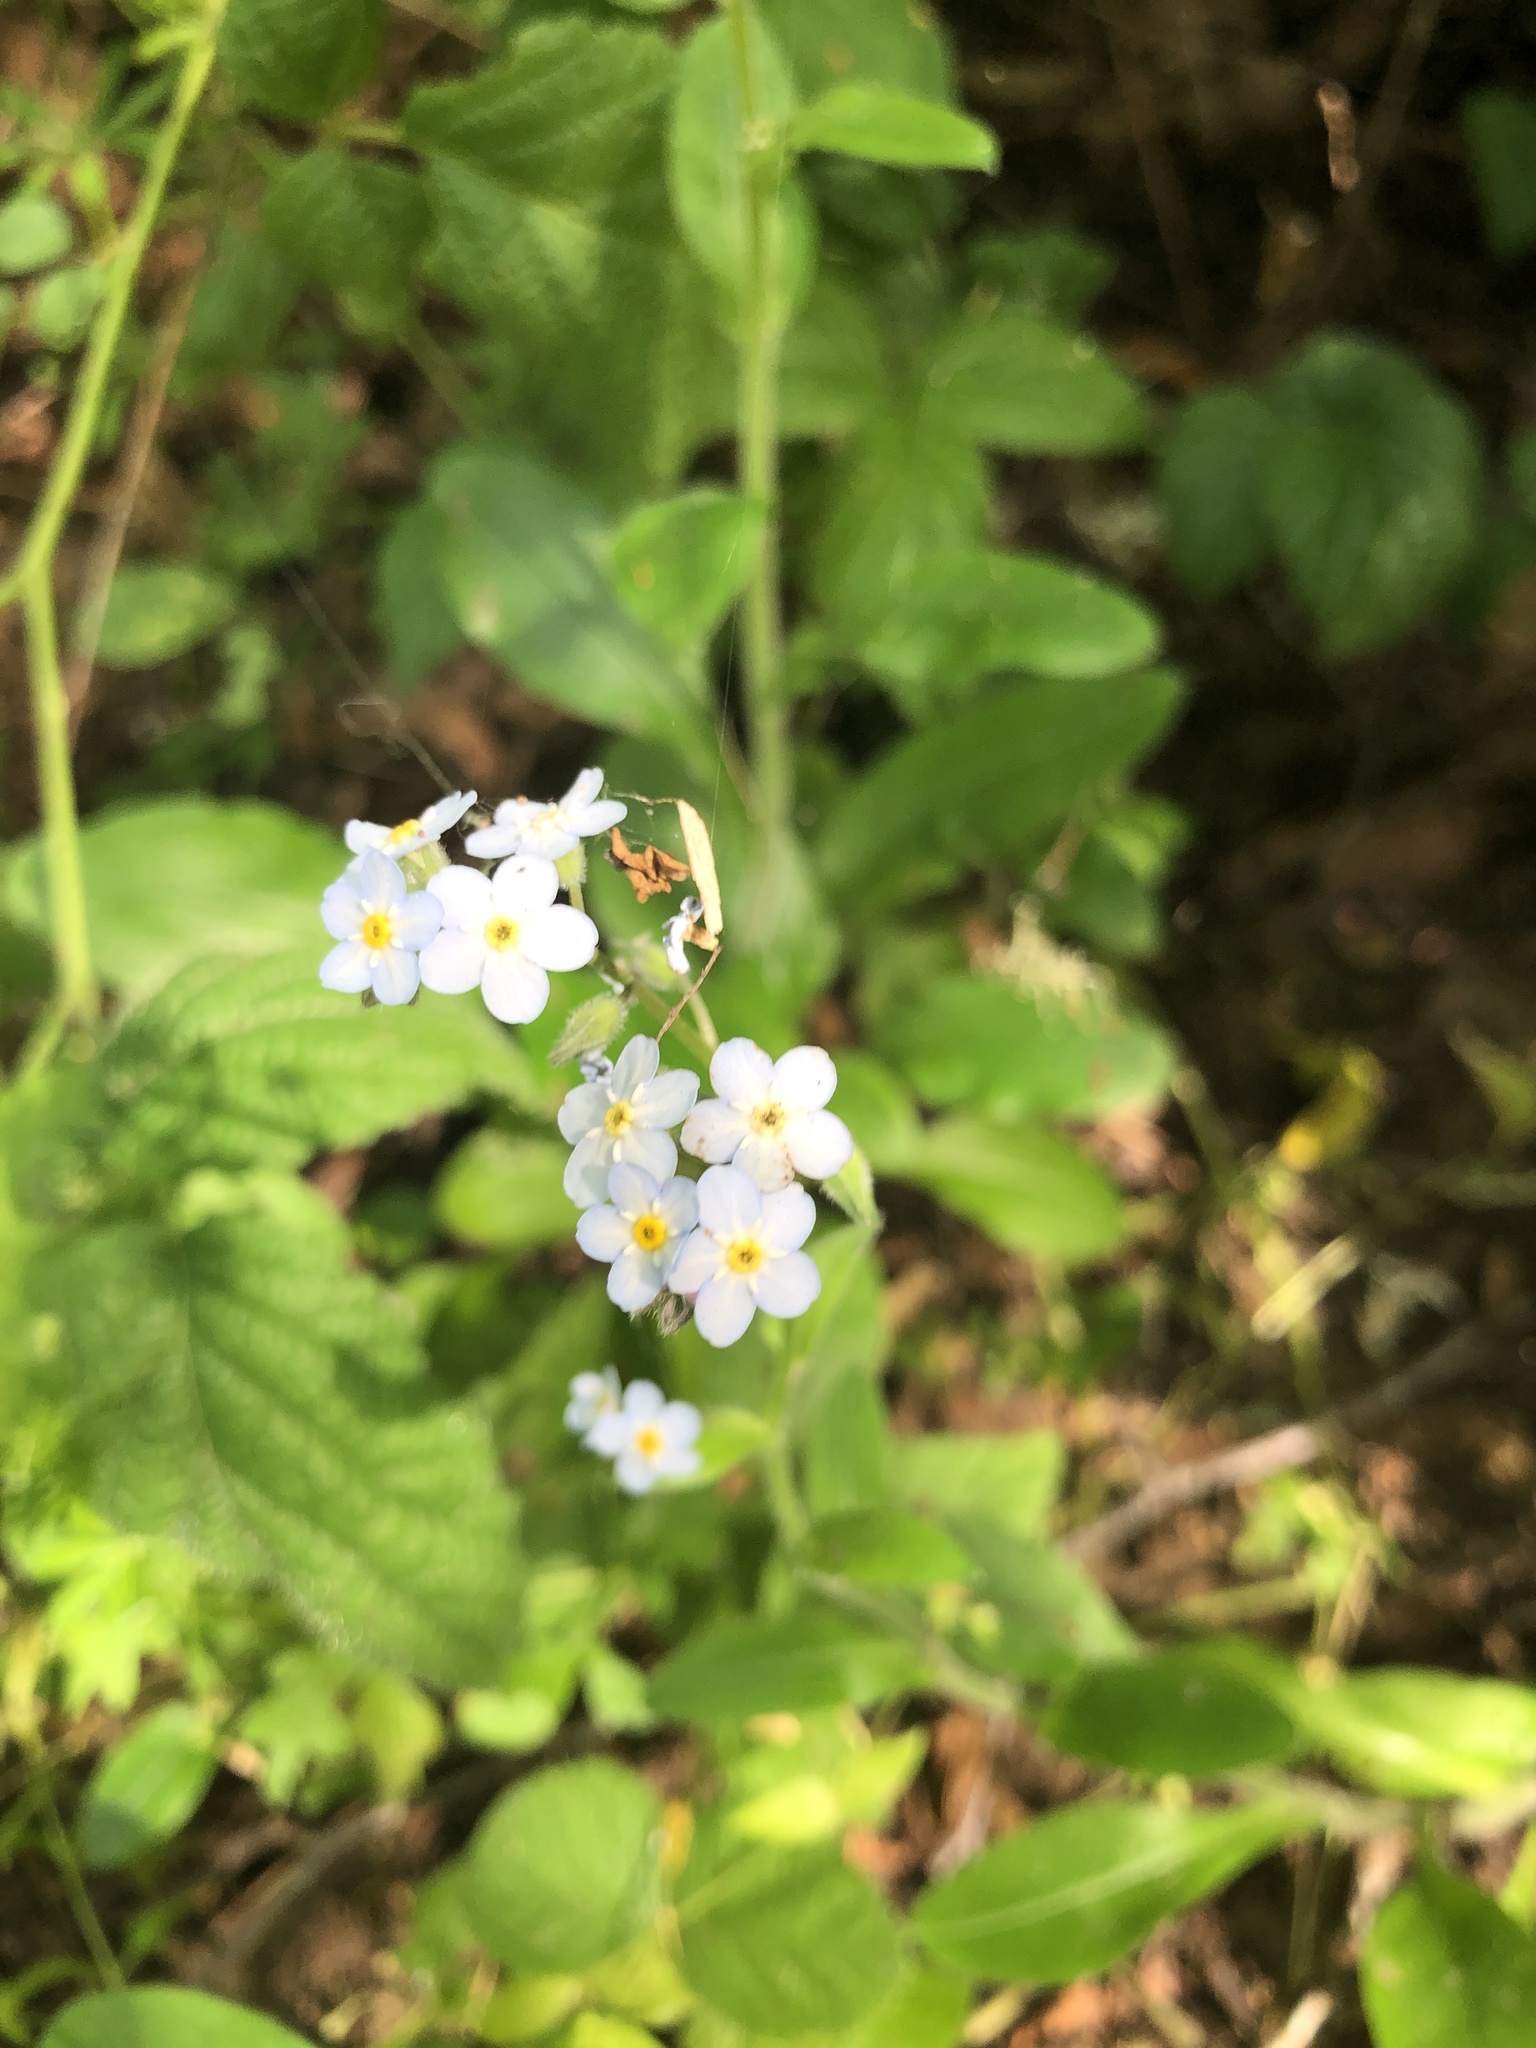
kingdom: Plantae
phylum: Tracheophyta
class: Magnoliopsida
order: Boraginales
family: Boraginaceae
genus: Myosotis
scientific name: Myosotis latifolia
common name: Broadleaf forget-me-not
